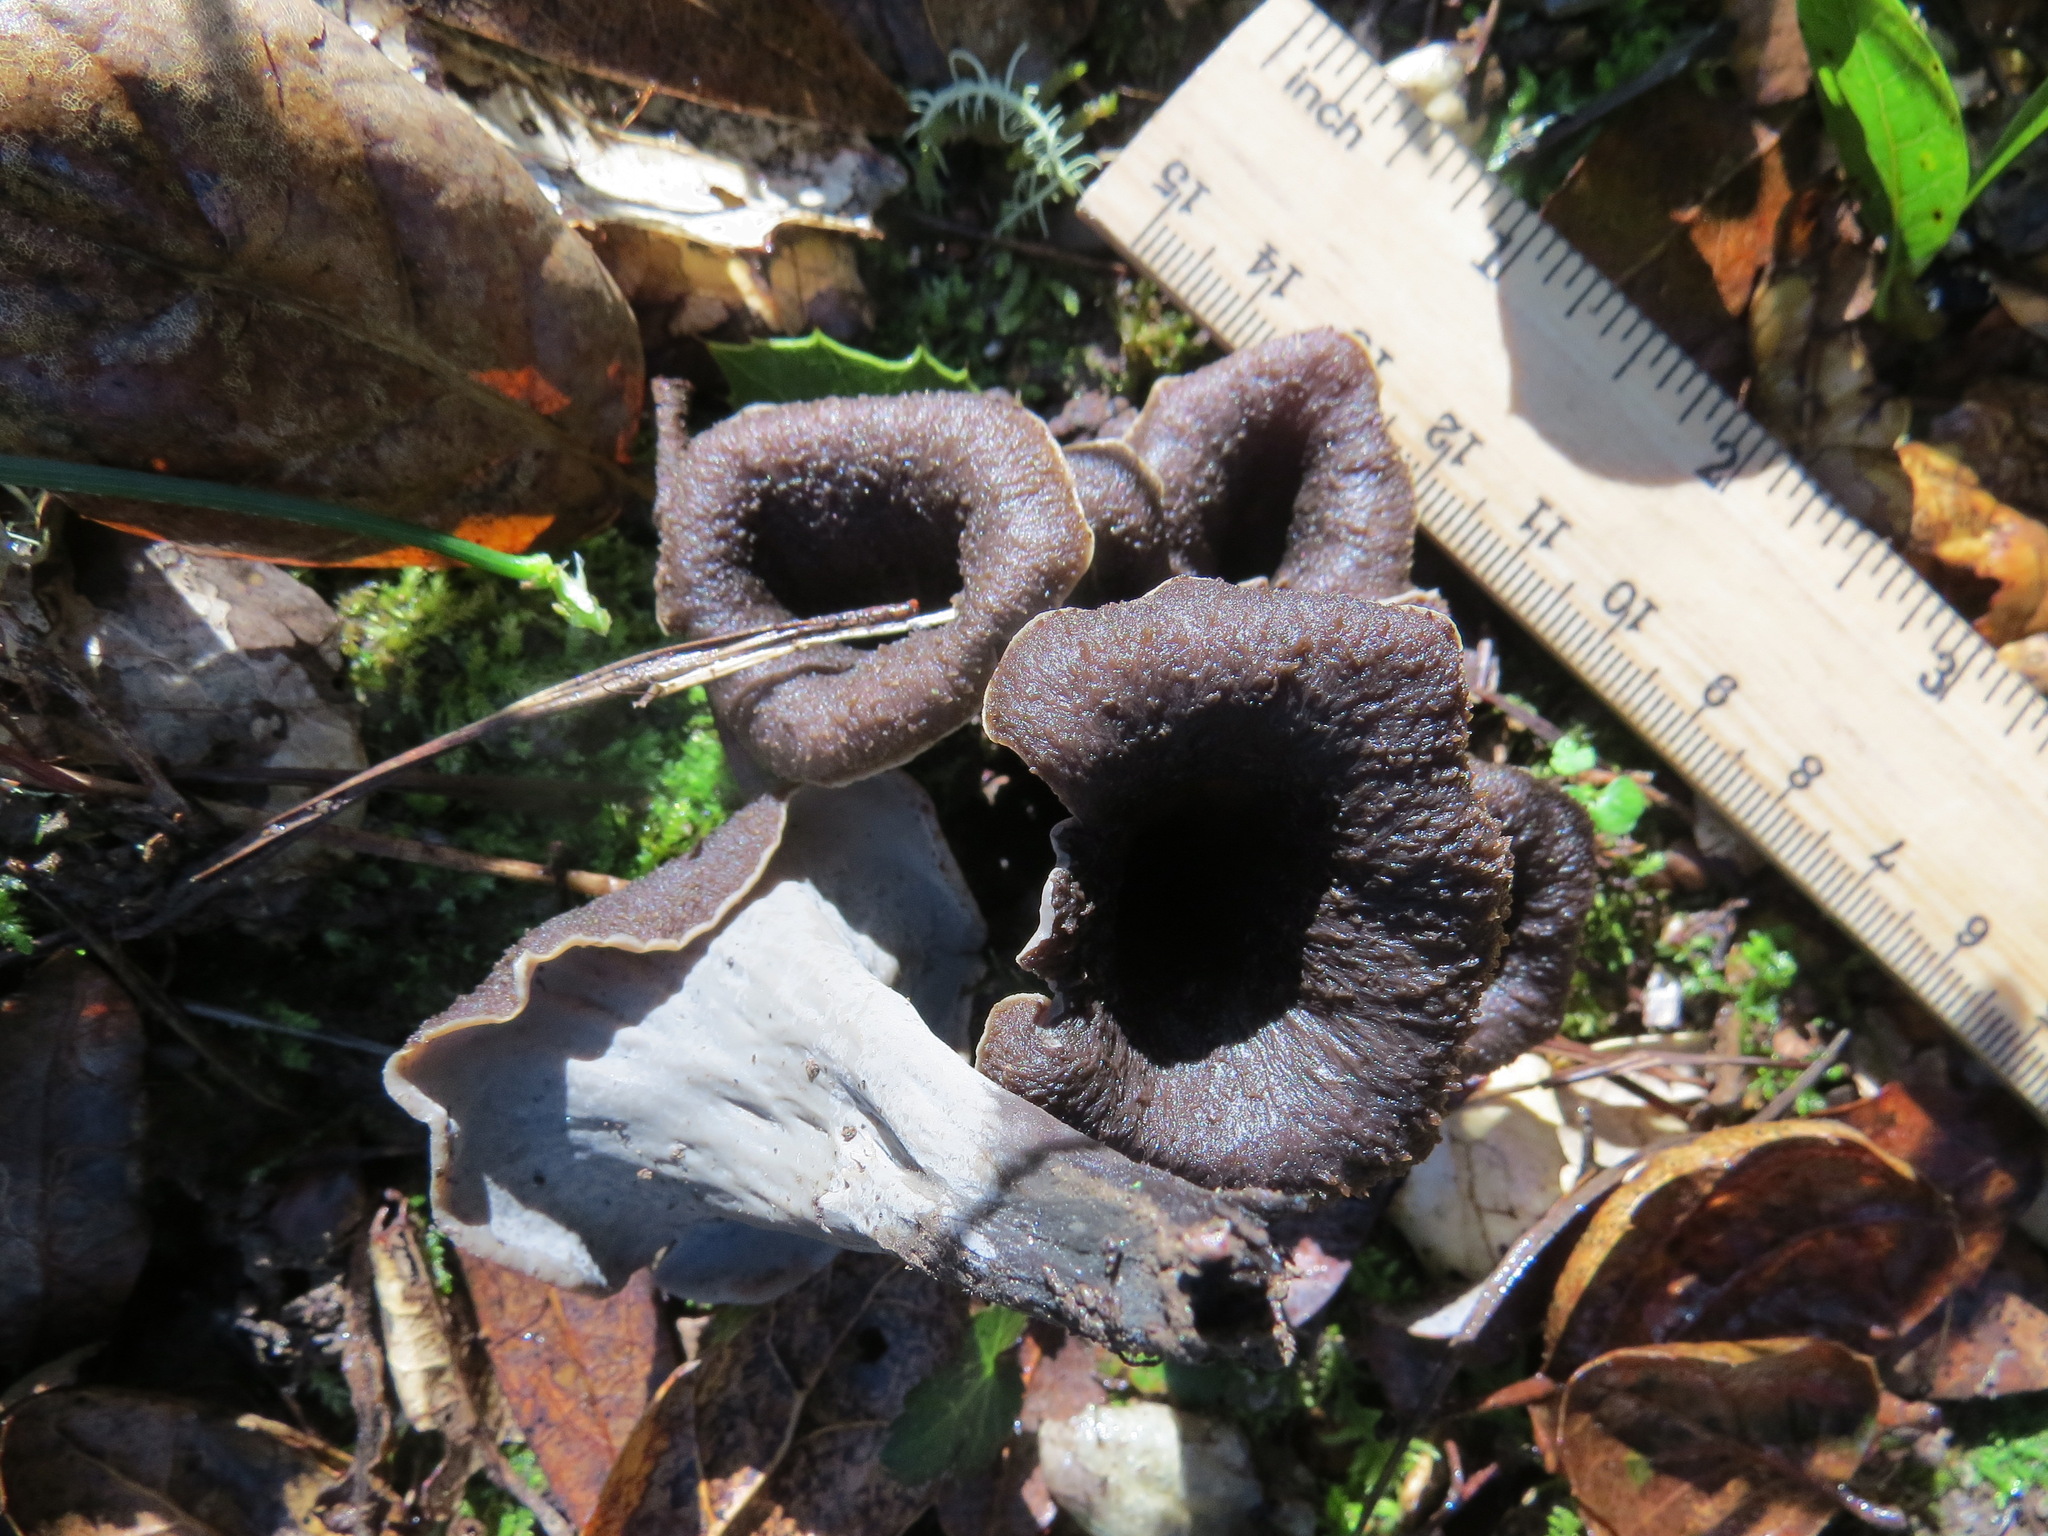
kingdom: Fungi
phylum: Basidiomycota
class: Agaricomycetes
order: Cantharellales
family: Hydnaceae
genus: Craterellus
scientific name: Craterellus calicornucopioides
